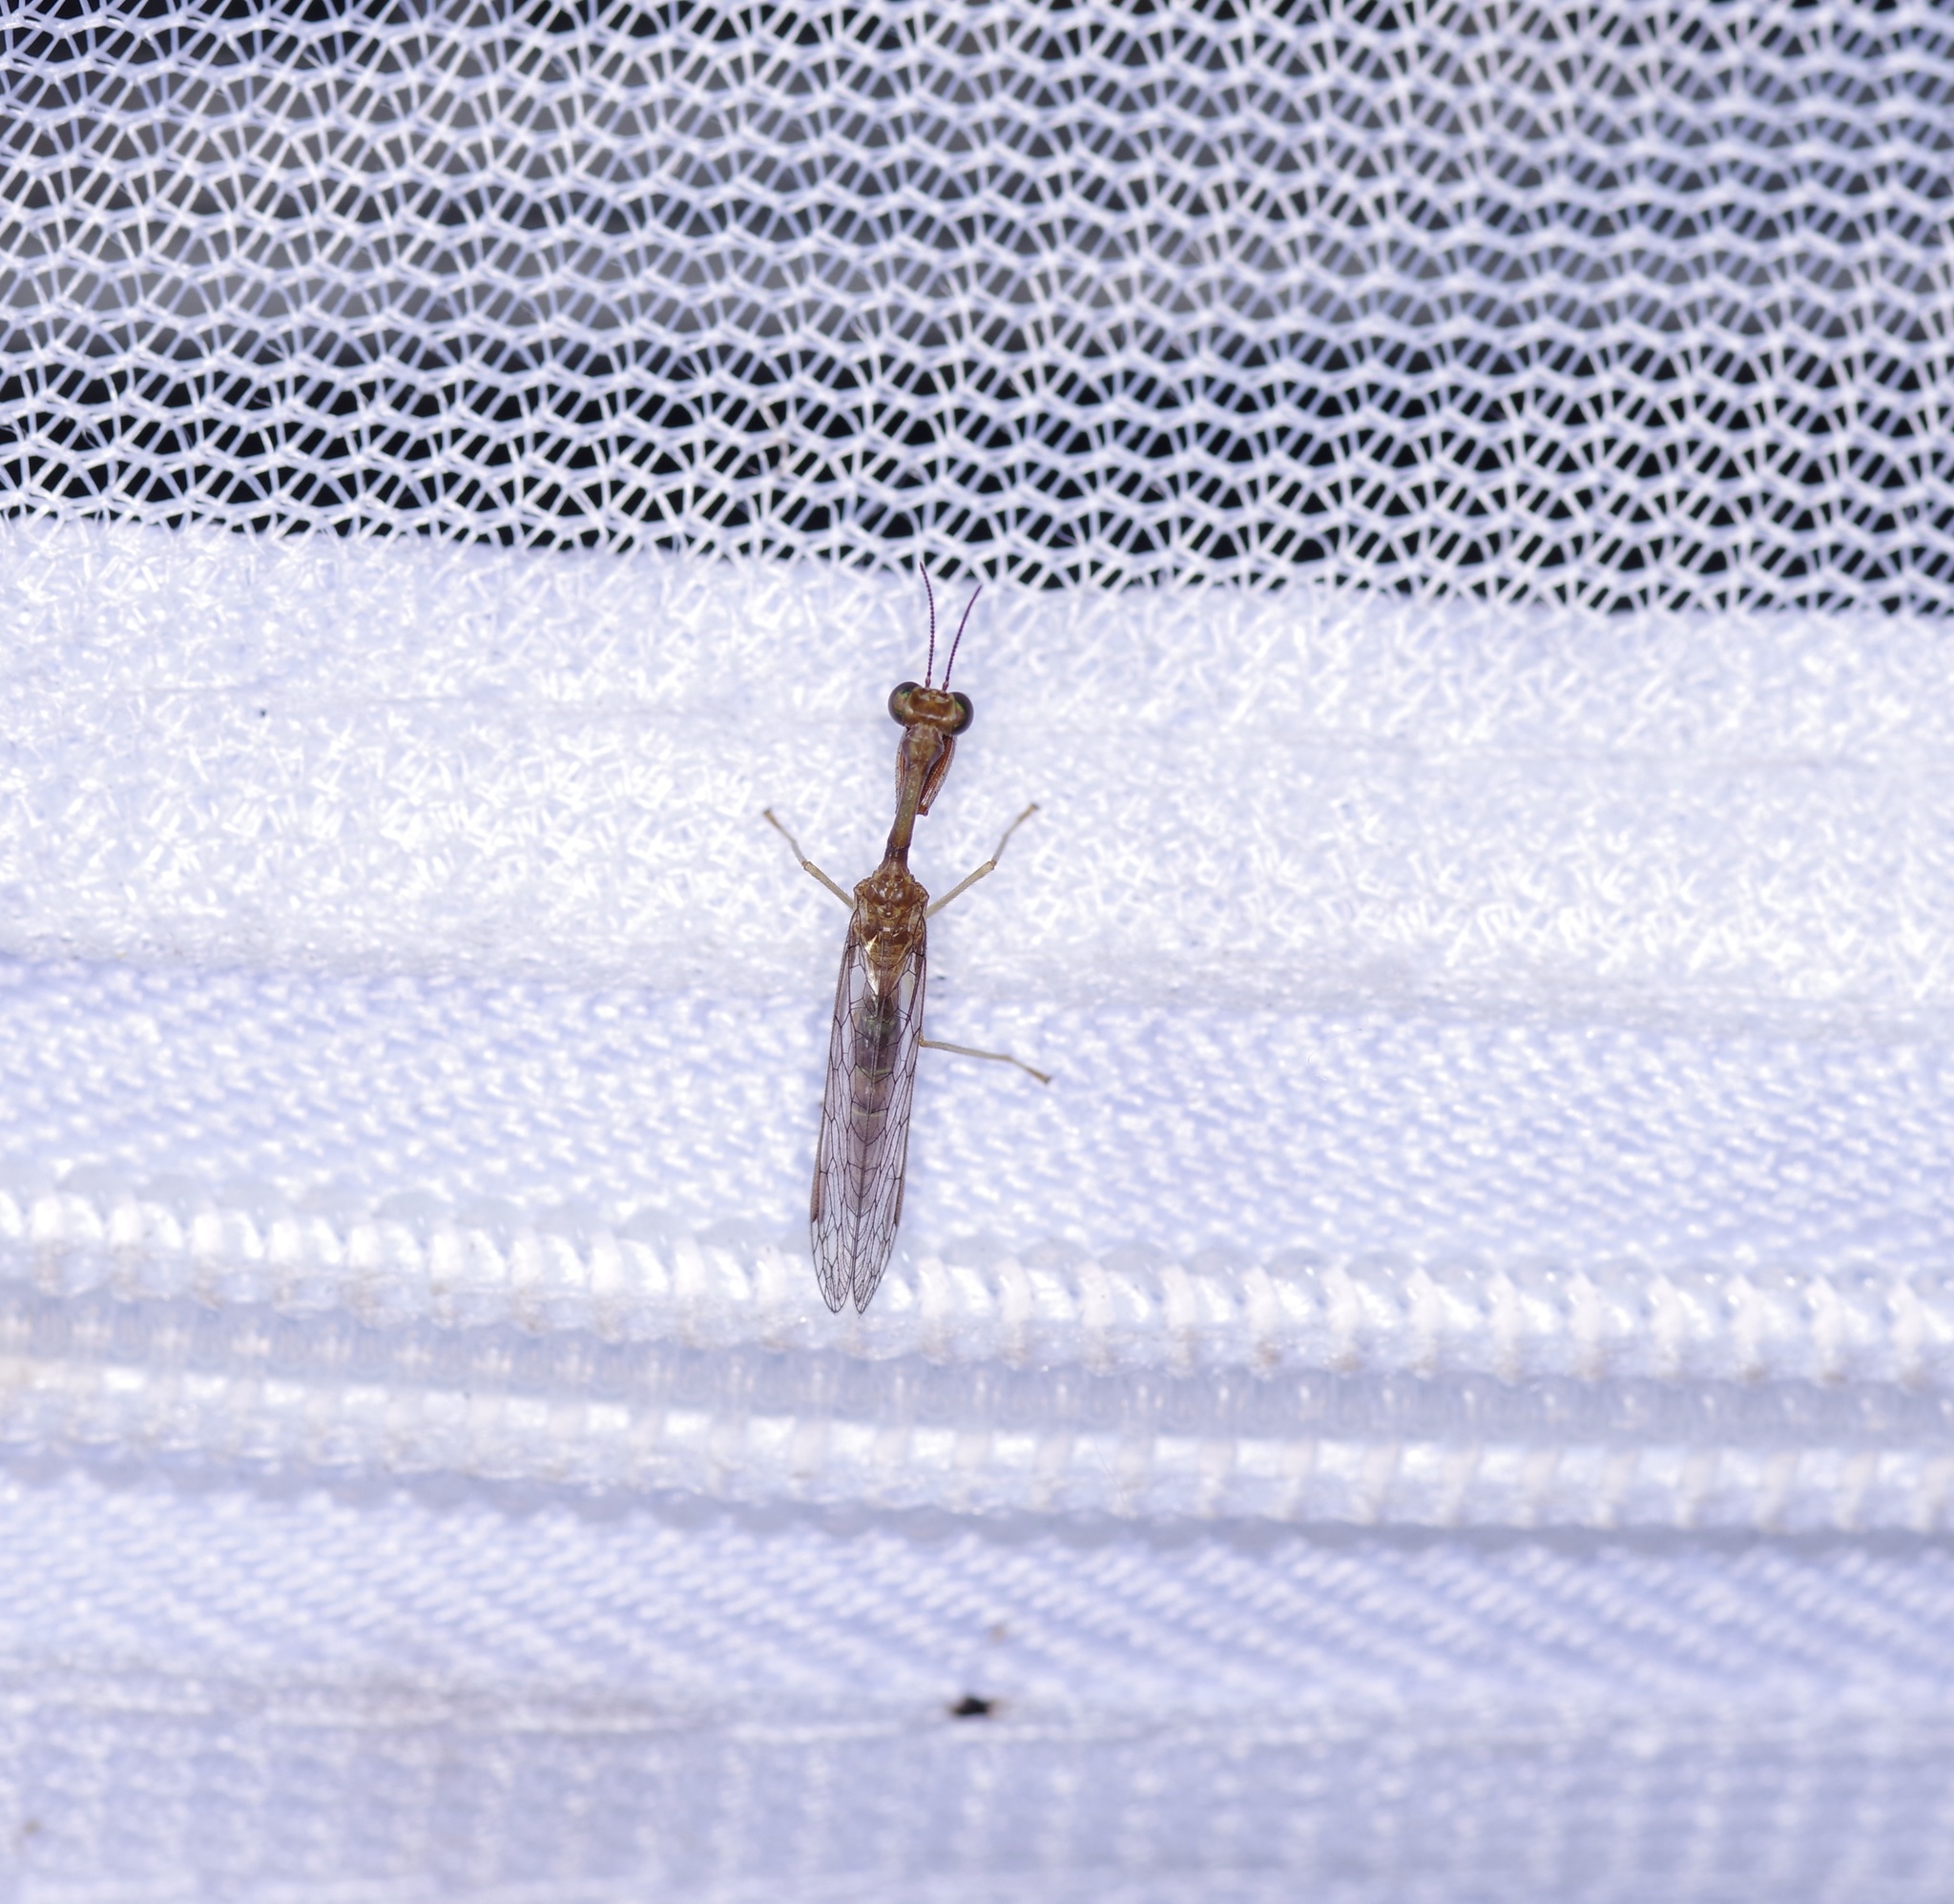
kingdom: Animalia
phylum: Arthropoda
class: Insecta
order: Neuroptera
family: Mantispidae
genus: Leptomantispa
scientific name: Leptomantispa pulchella
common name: Stevens's mantidfly
